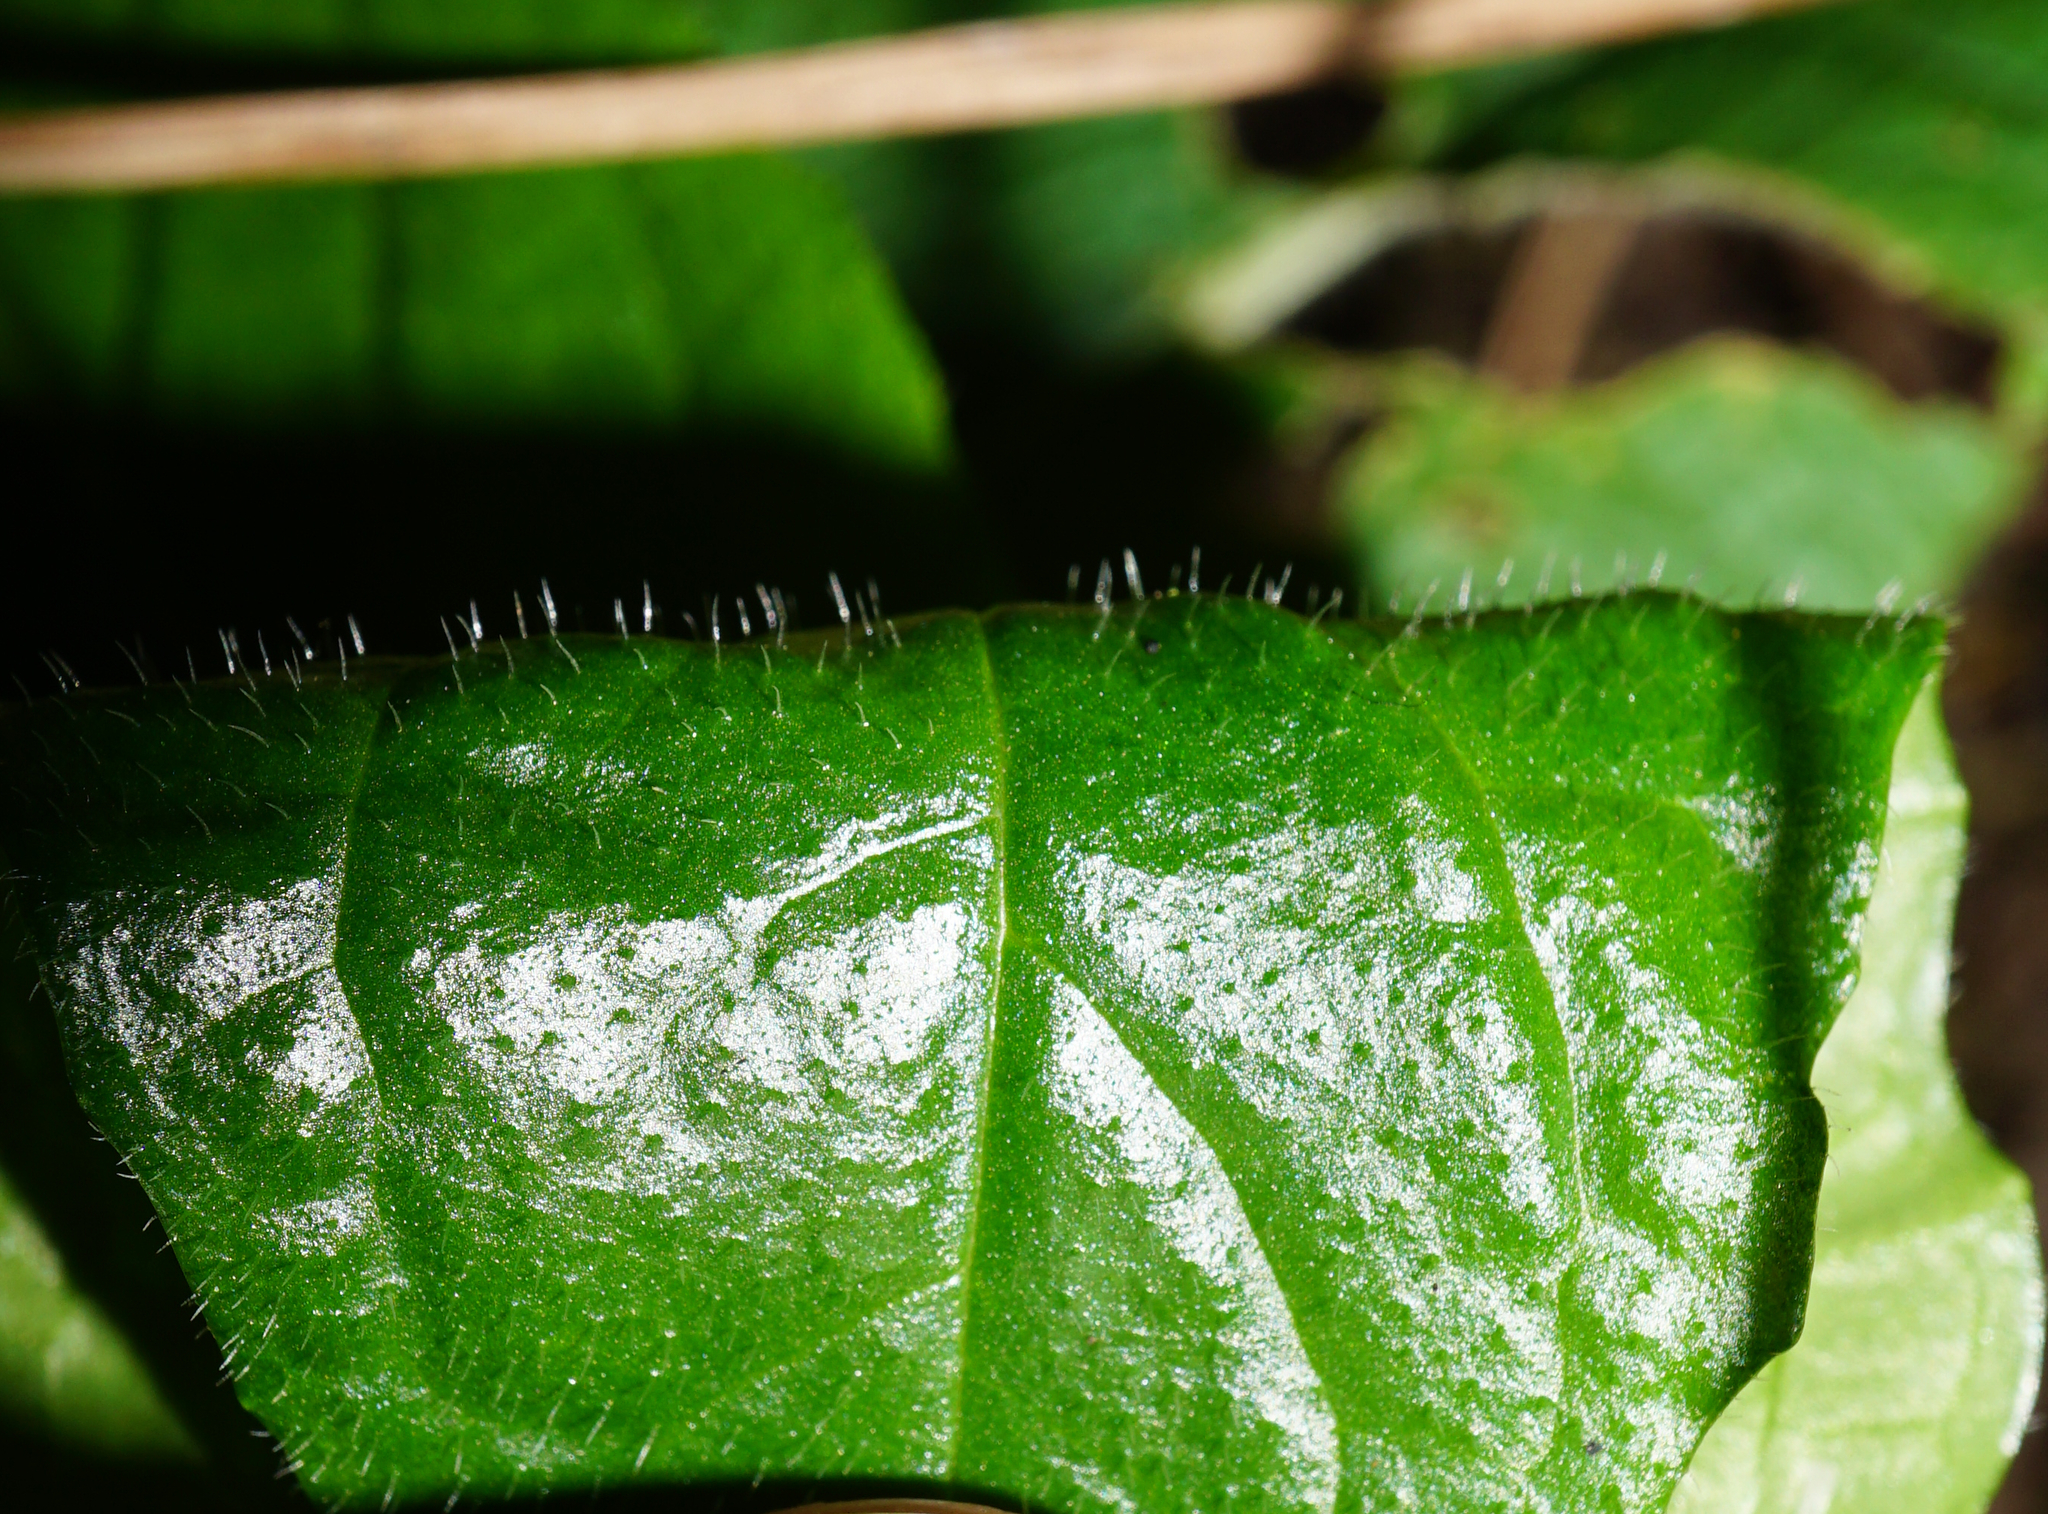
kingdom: Plantae
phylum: Tracheophyta
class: Magnoliopsida
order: Lamiales
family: Lamiaceae
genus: Ajuga
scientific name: Ajuga reptans
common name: Bugle
